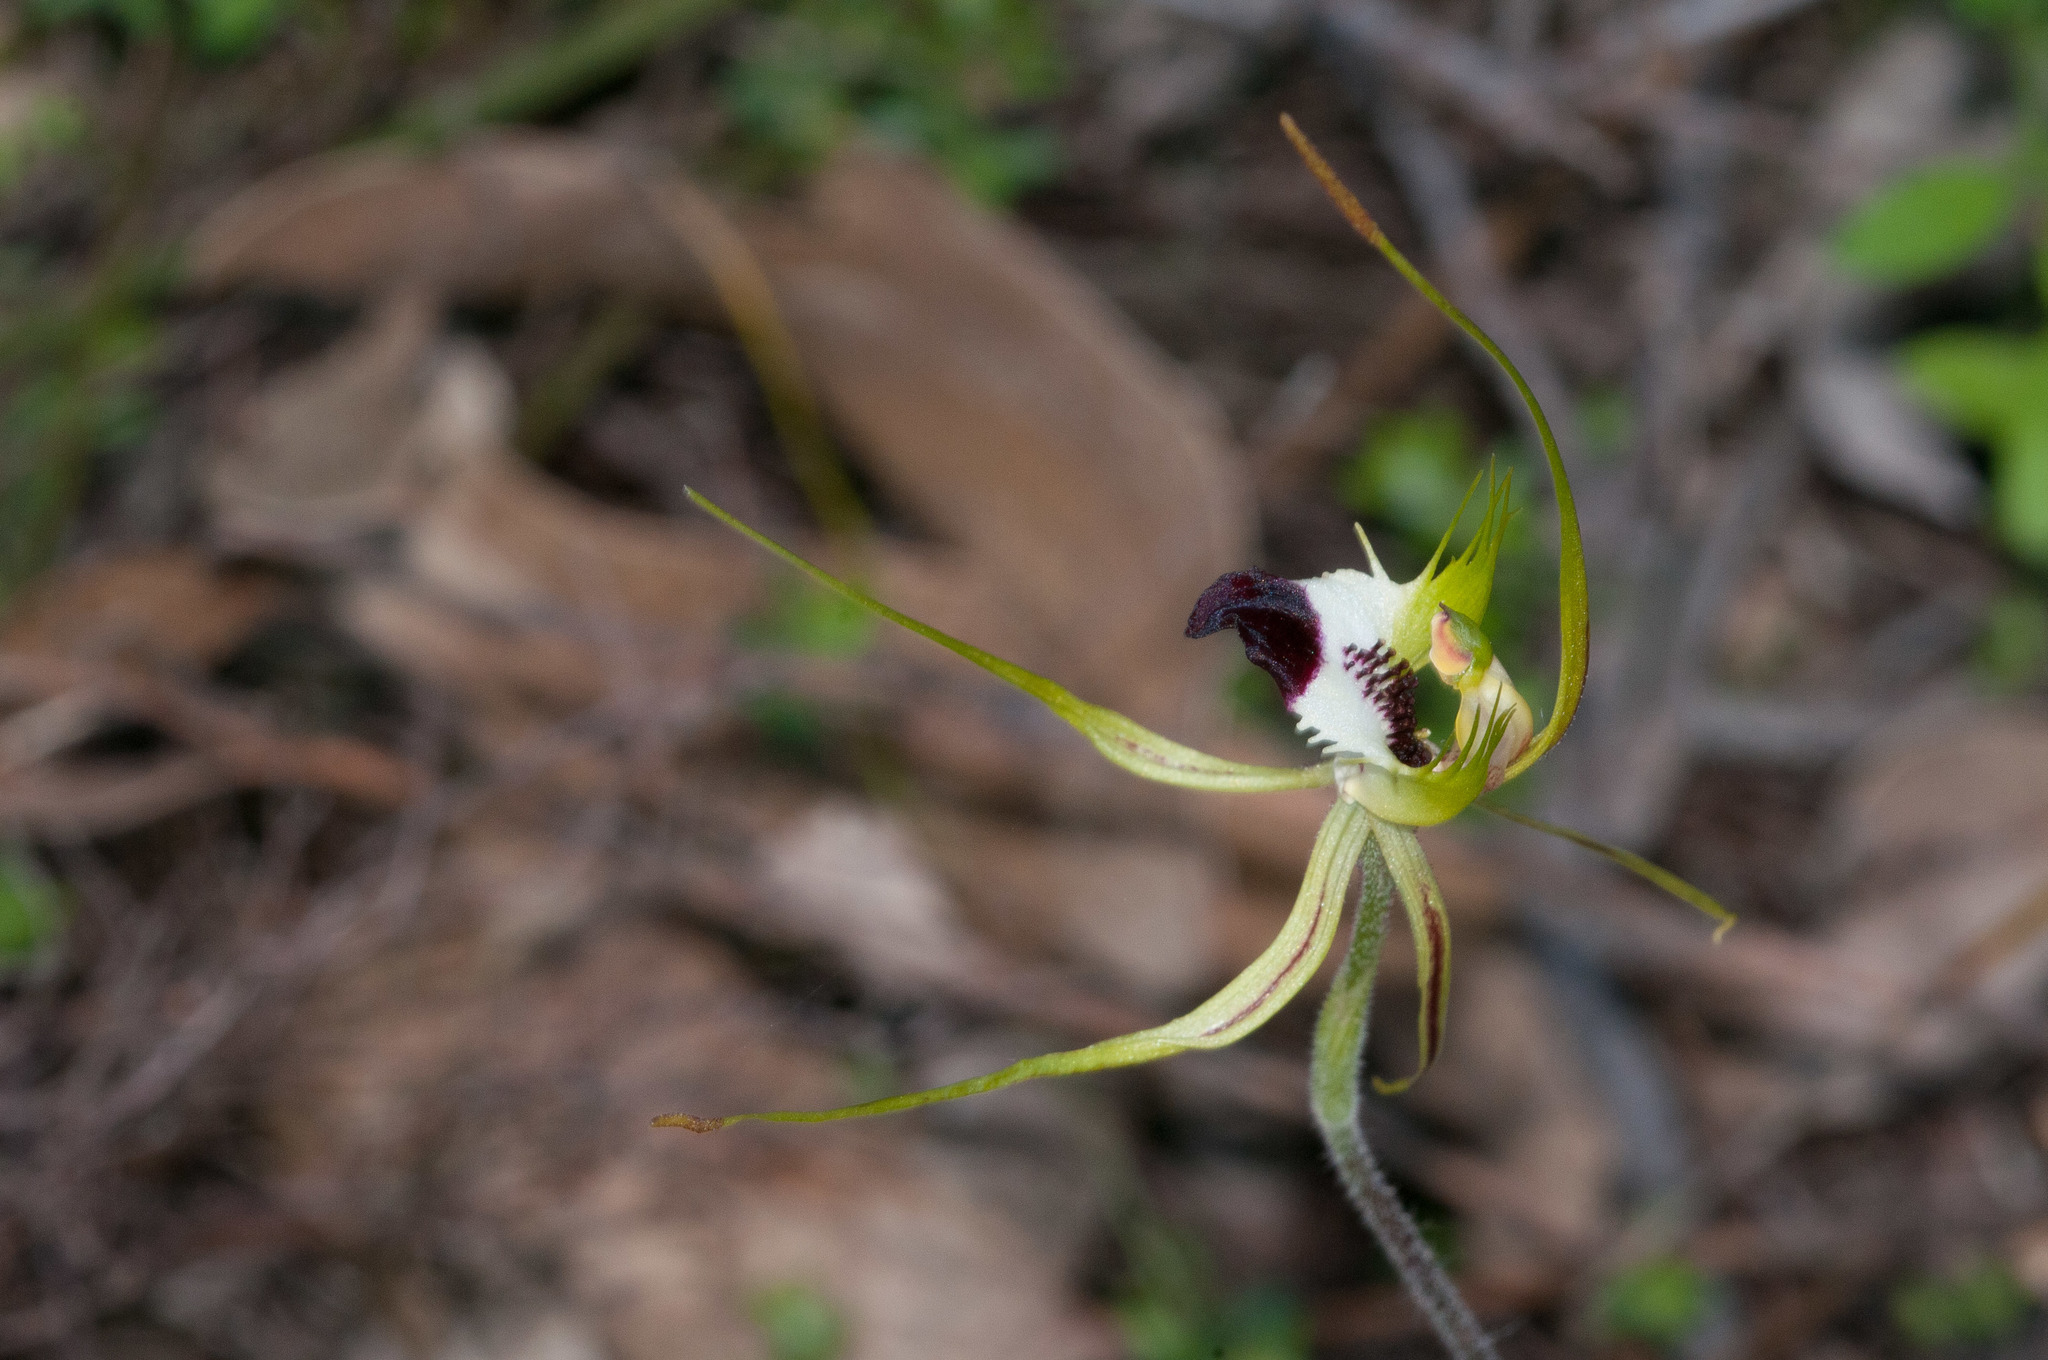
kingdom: Plantae
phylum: Tracheophyta
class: Liliopsida
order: Asparagales
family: Orchidaceae
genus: Caladenia
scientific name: Caladenia tentaculata
